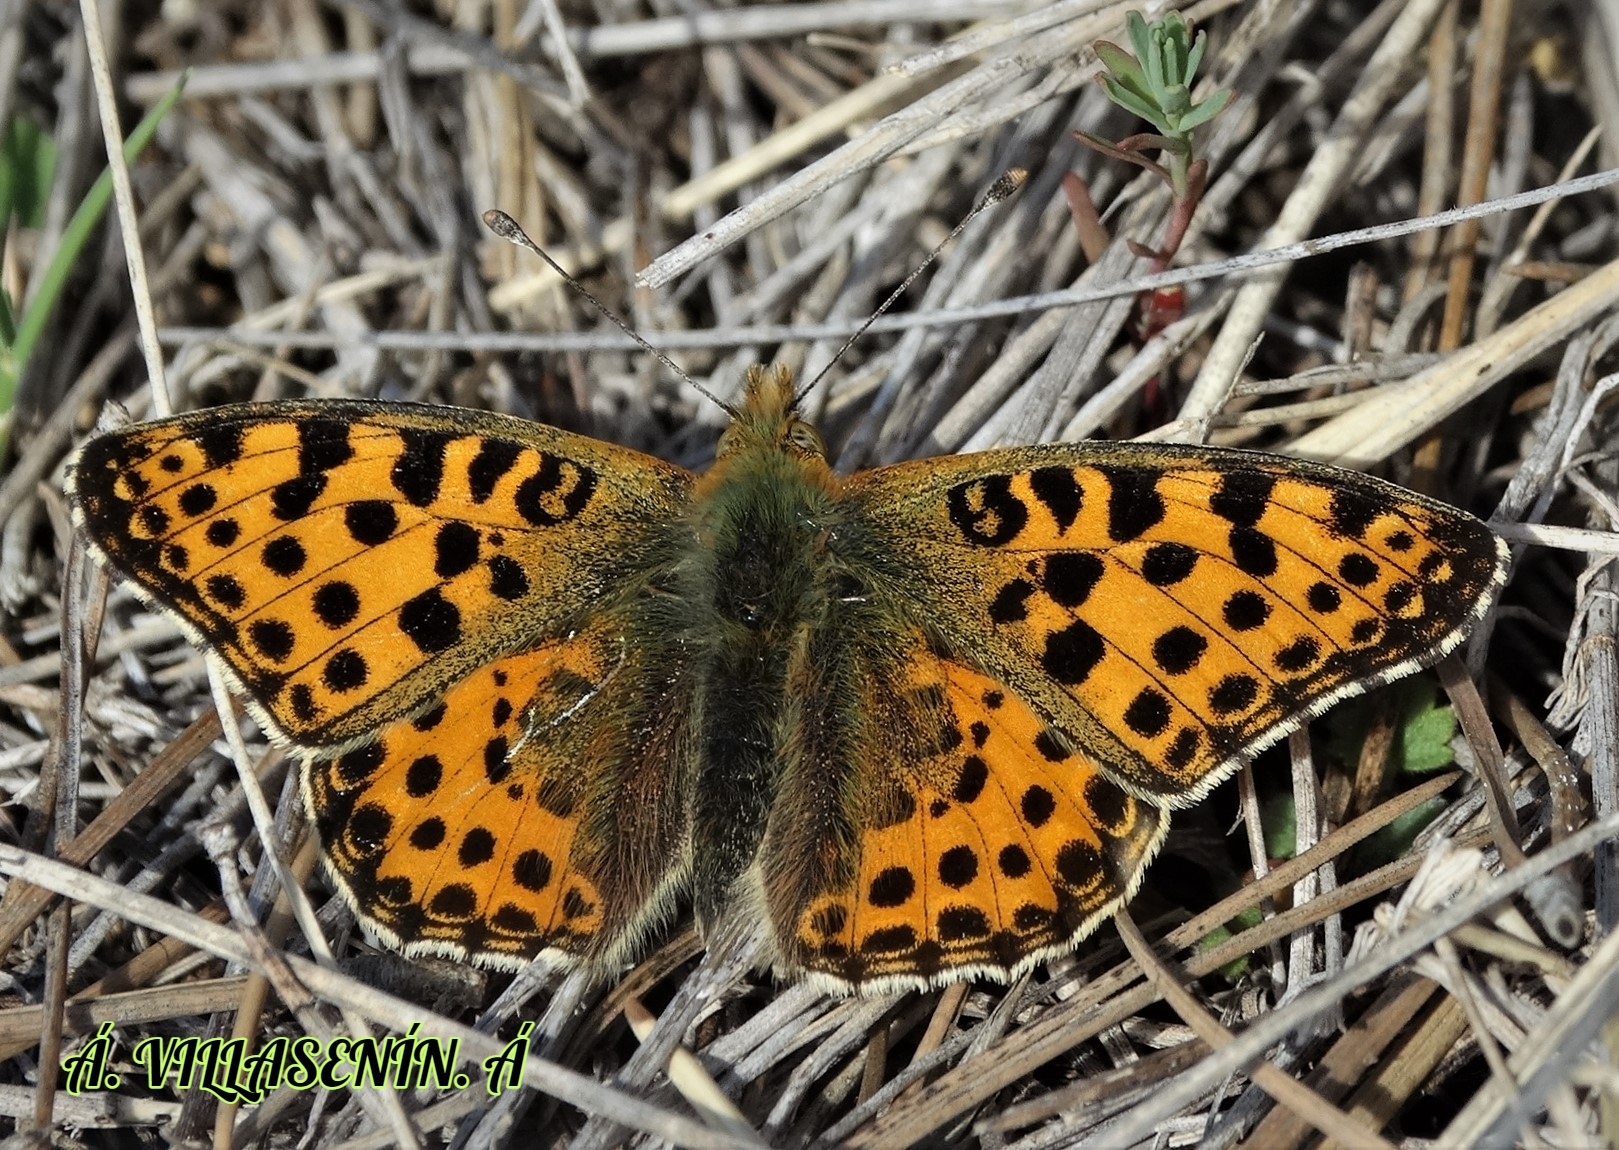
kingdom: Animalia
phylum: Arthropoda
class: Insecta
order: Lepidoptera
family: Nymphalidae
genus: Issoria
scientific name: Issoria lathonia
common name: Queen of spain fritillary
